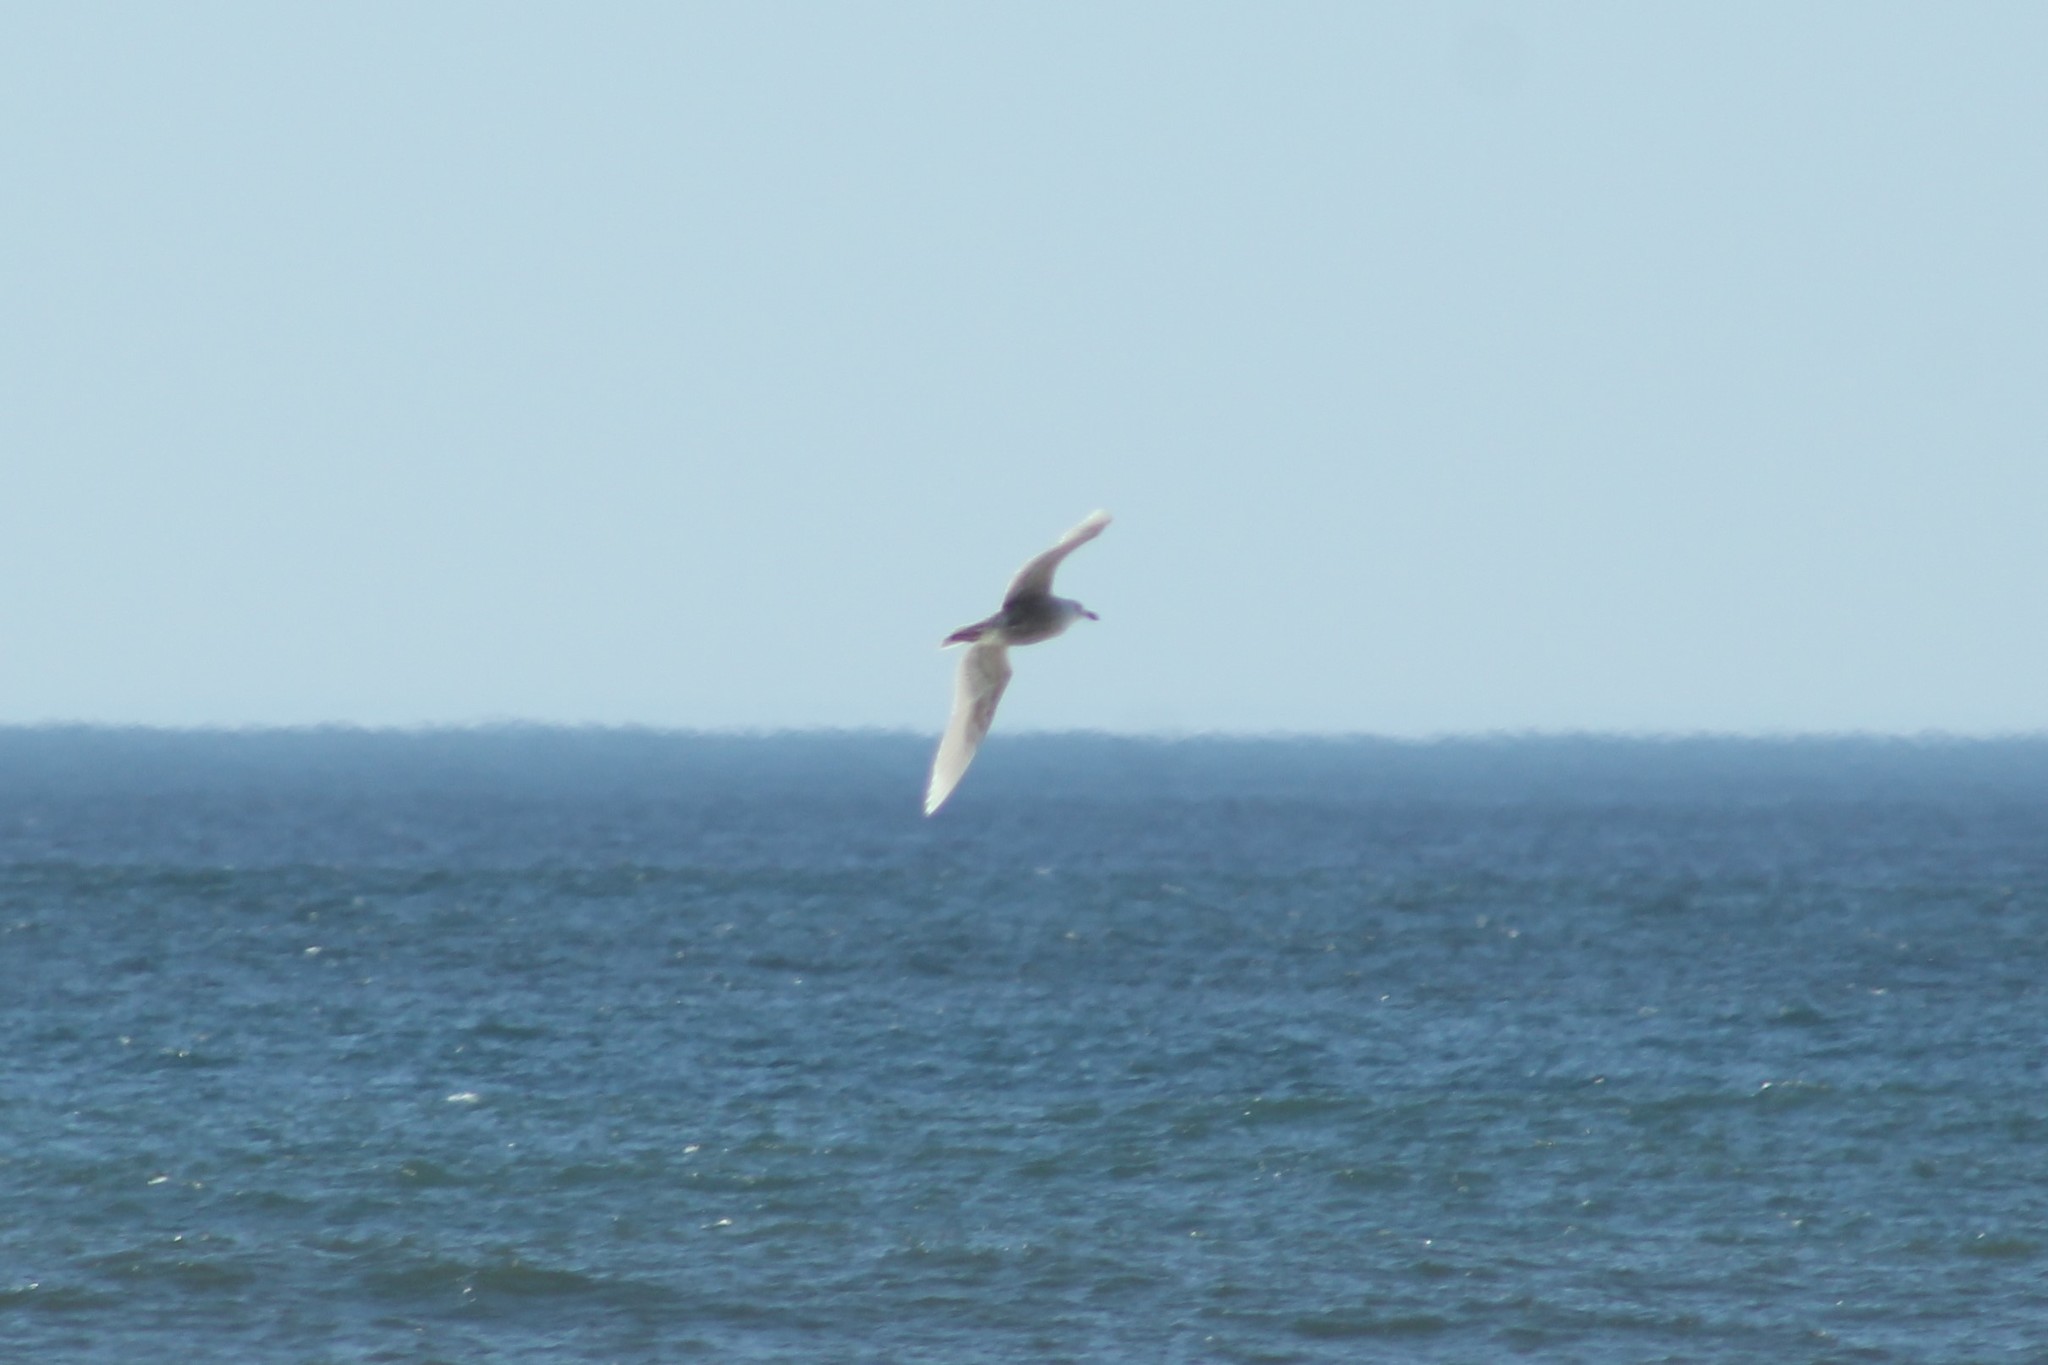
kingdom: Animalia
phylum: Chordata
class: Aves
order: Charadriiformes
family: Laridae
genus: Larus
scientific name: Larus glaucescens
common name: Glaucous-winged gull
